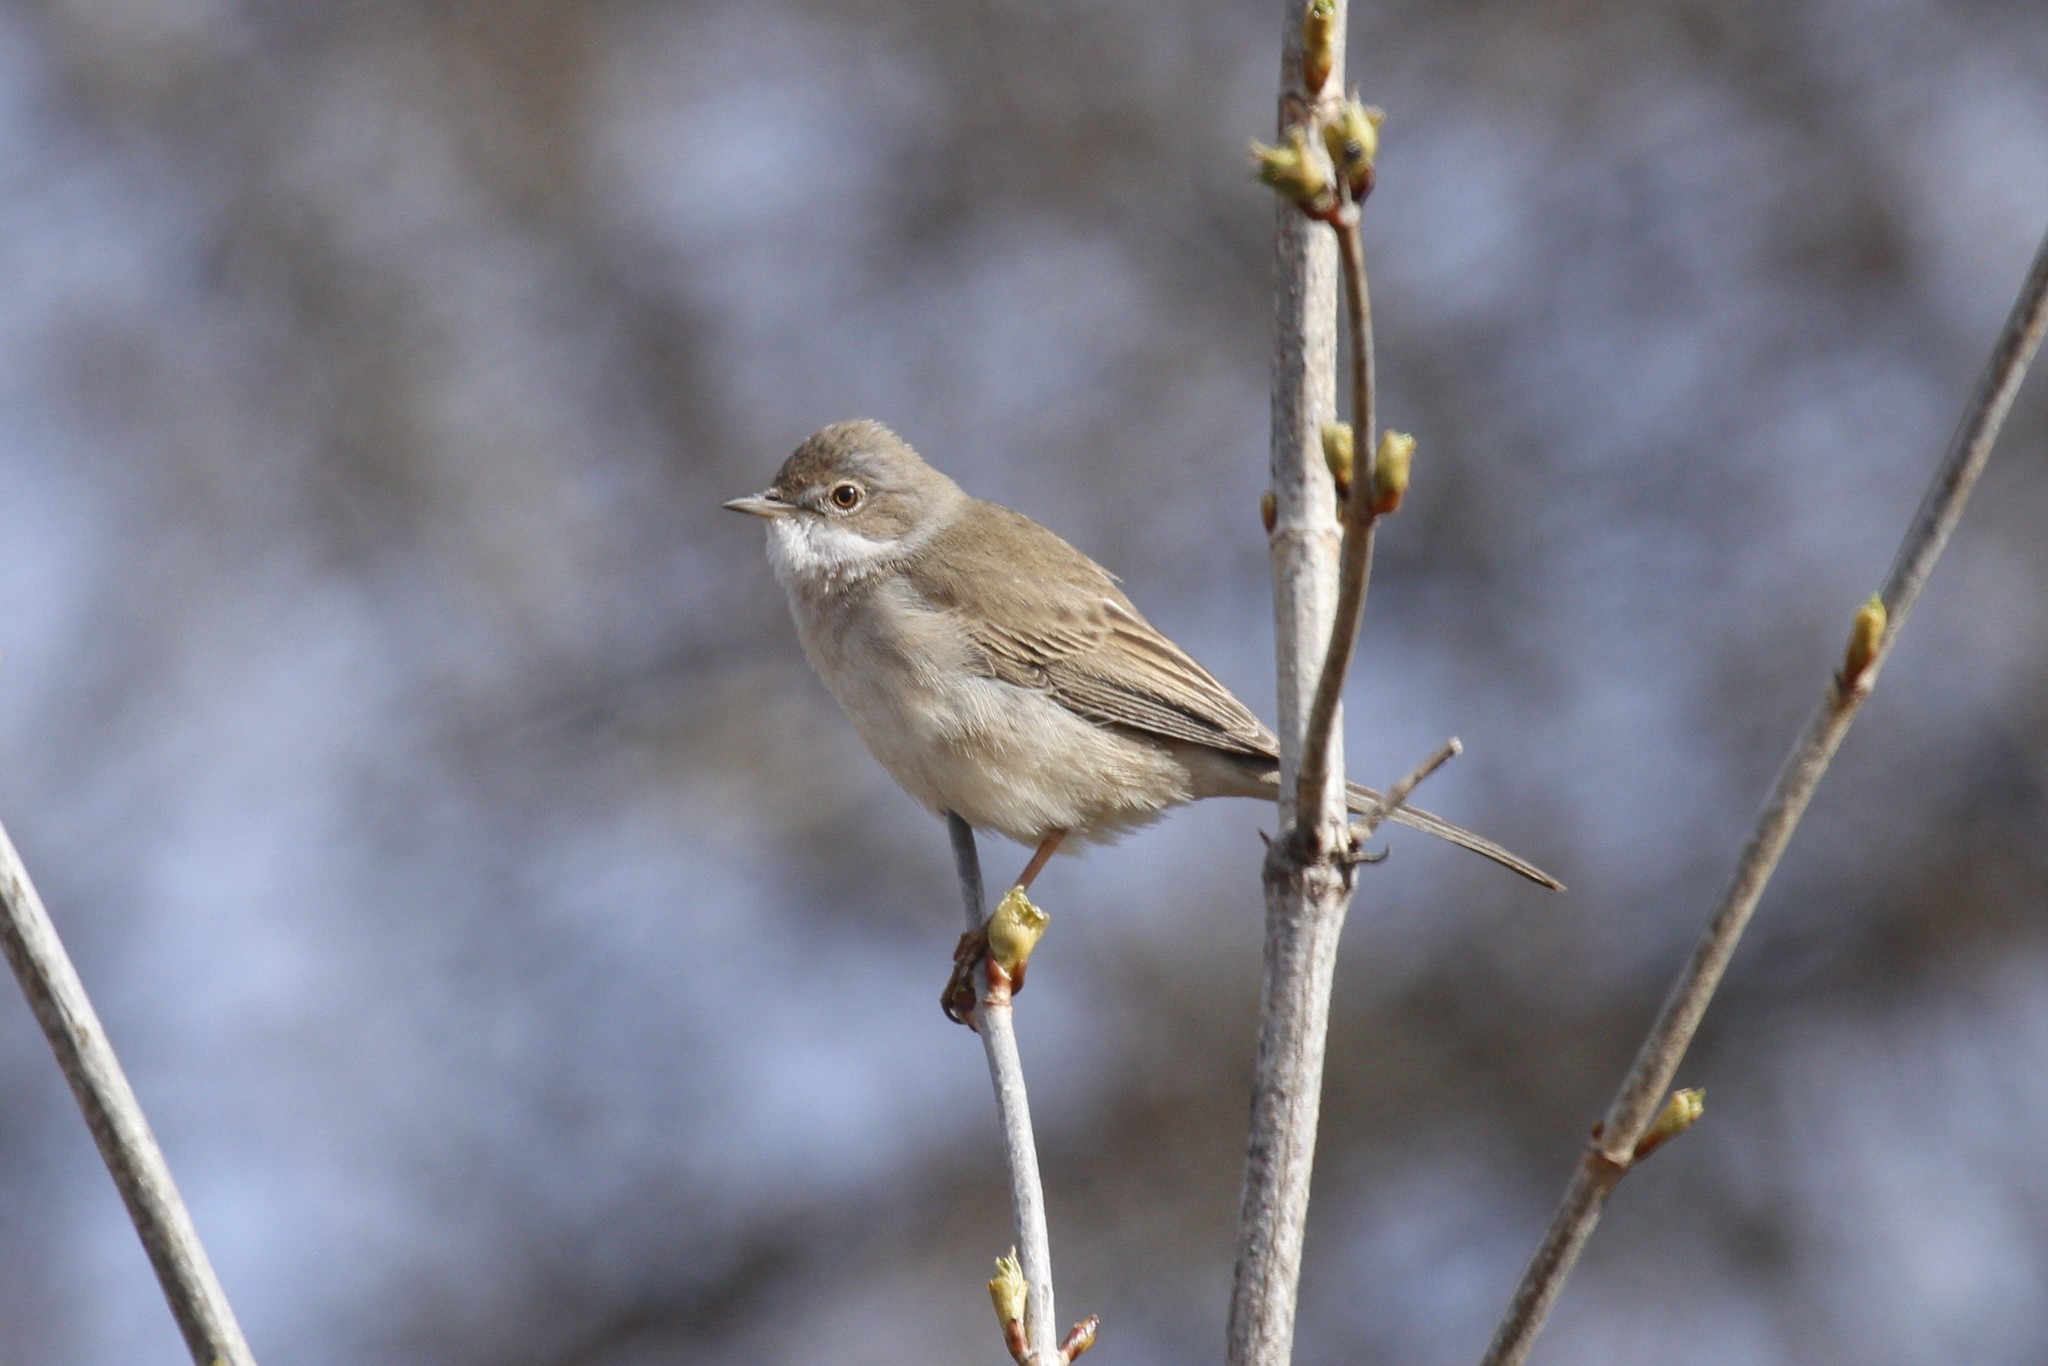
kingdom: Animalia
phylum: Chordata
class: Aves
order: Passeriformes
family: Sylviidae
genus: Sylvia
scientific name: Sylvia communis
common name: Common whitethroat
